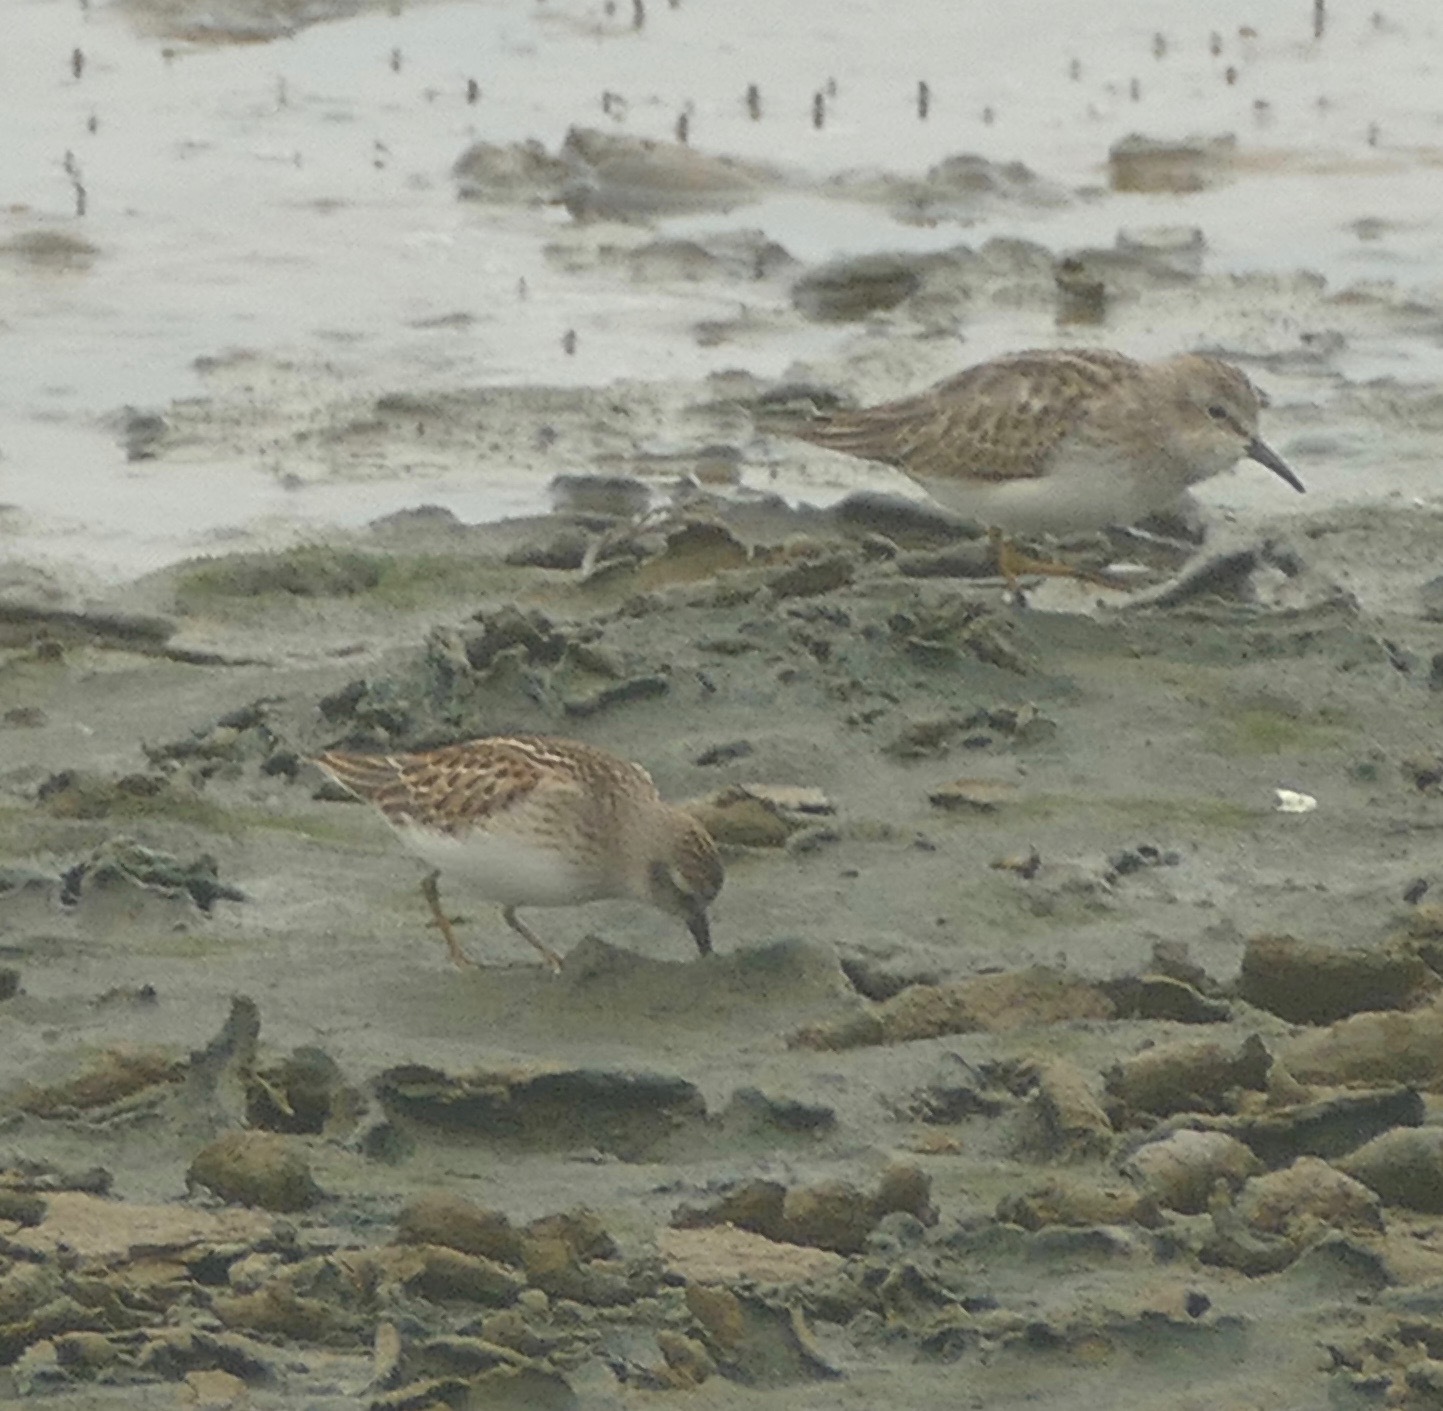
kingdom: Animalia
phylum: Chordata
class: Aves
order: Charadriiformes
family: Scolopacidae
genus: Calidris
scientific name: Calidris minutilla
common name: Least sandpiper
